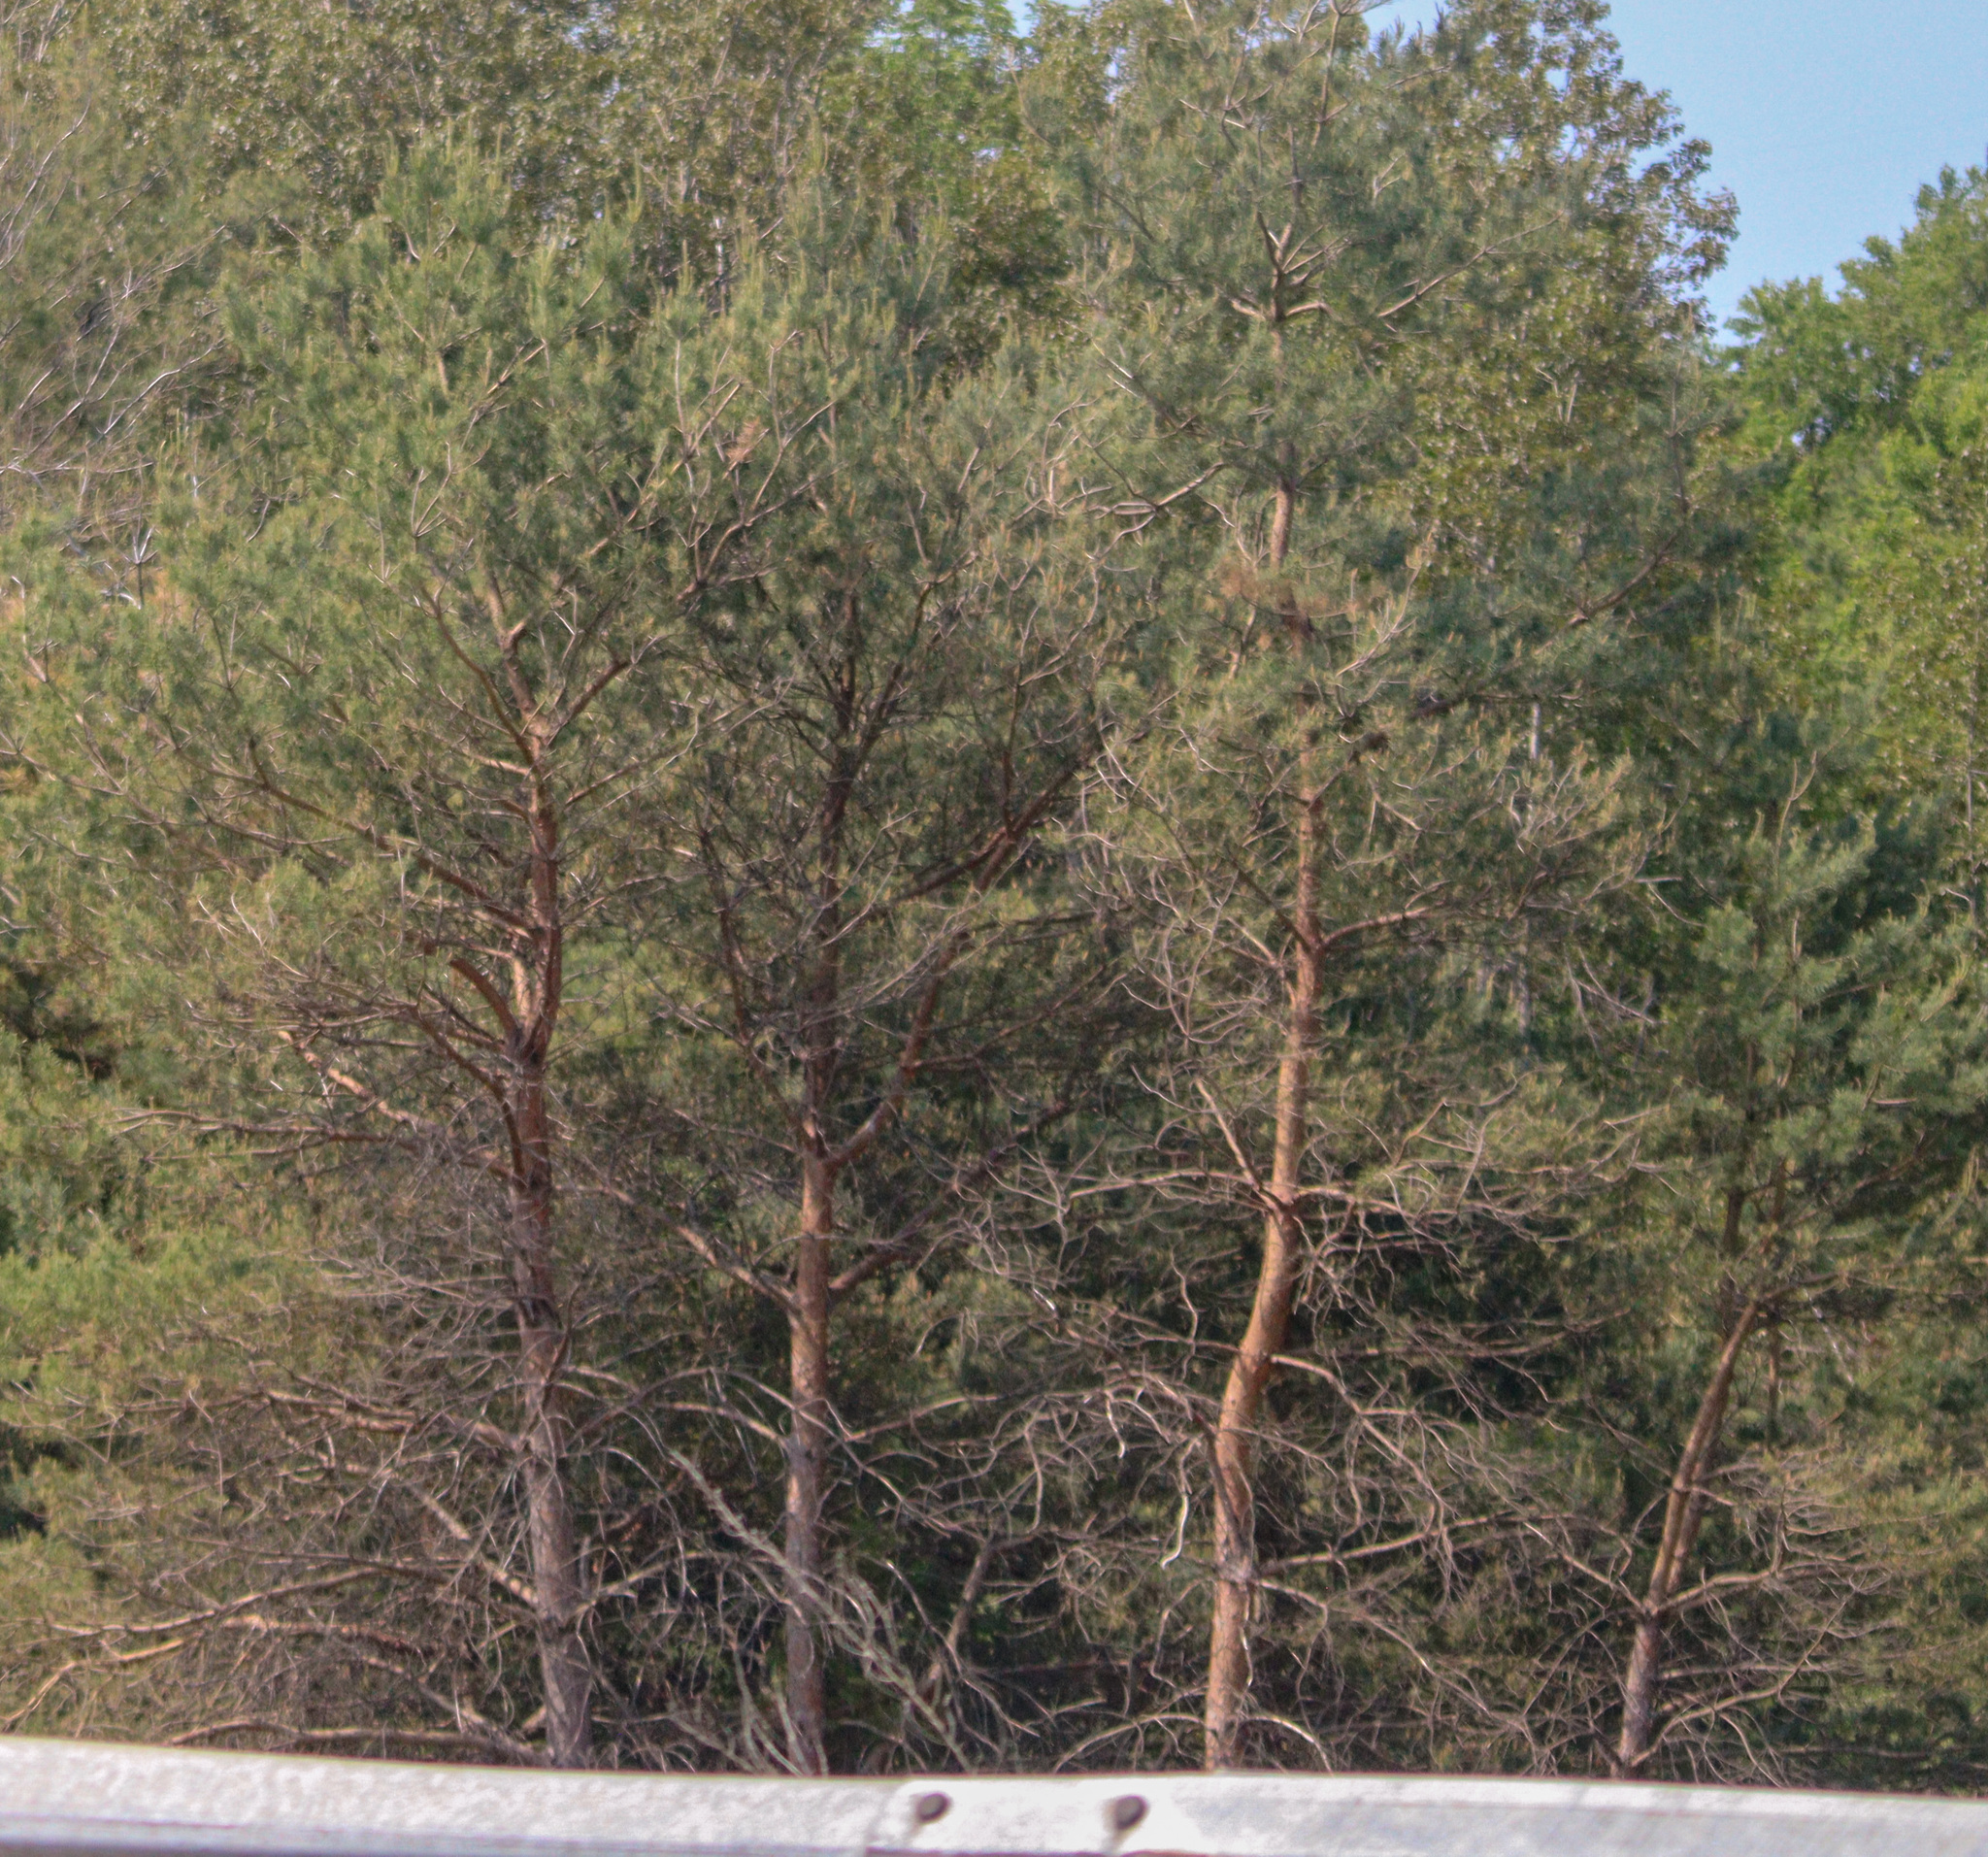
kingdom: Plantae
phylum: Tracheophyta
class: Pinopsida
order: Pinales
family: Pinaceae
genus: Pinus
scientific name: Pinus sylvestris
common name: Scots pine
